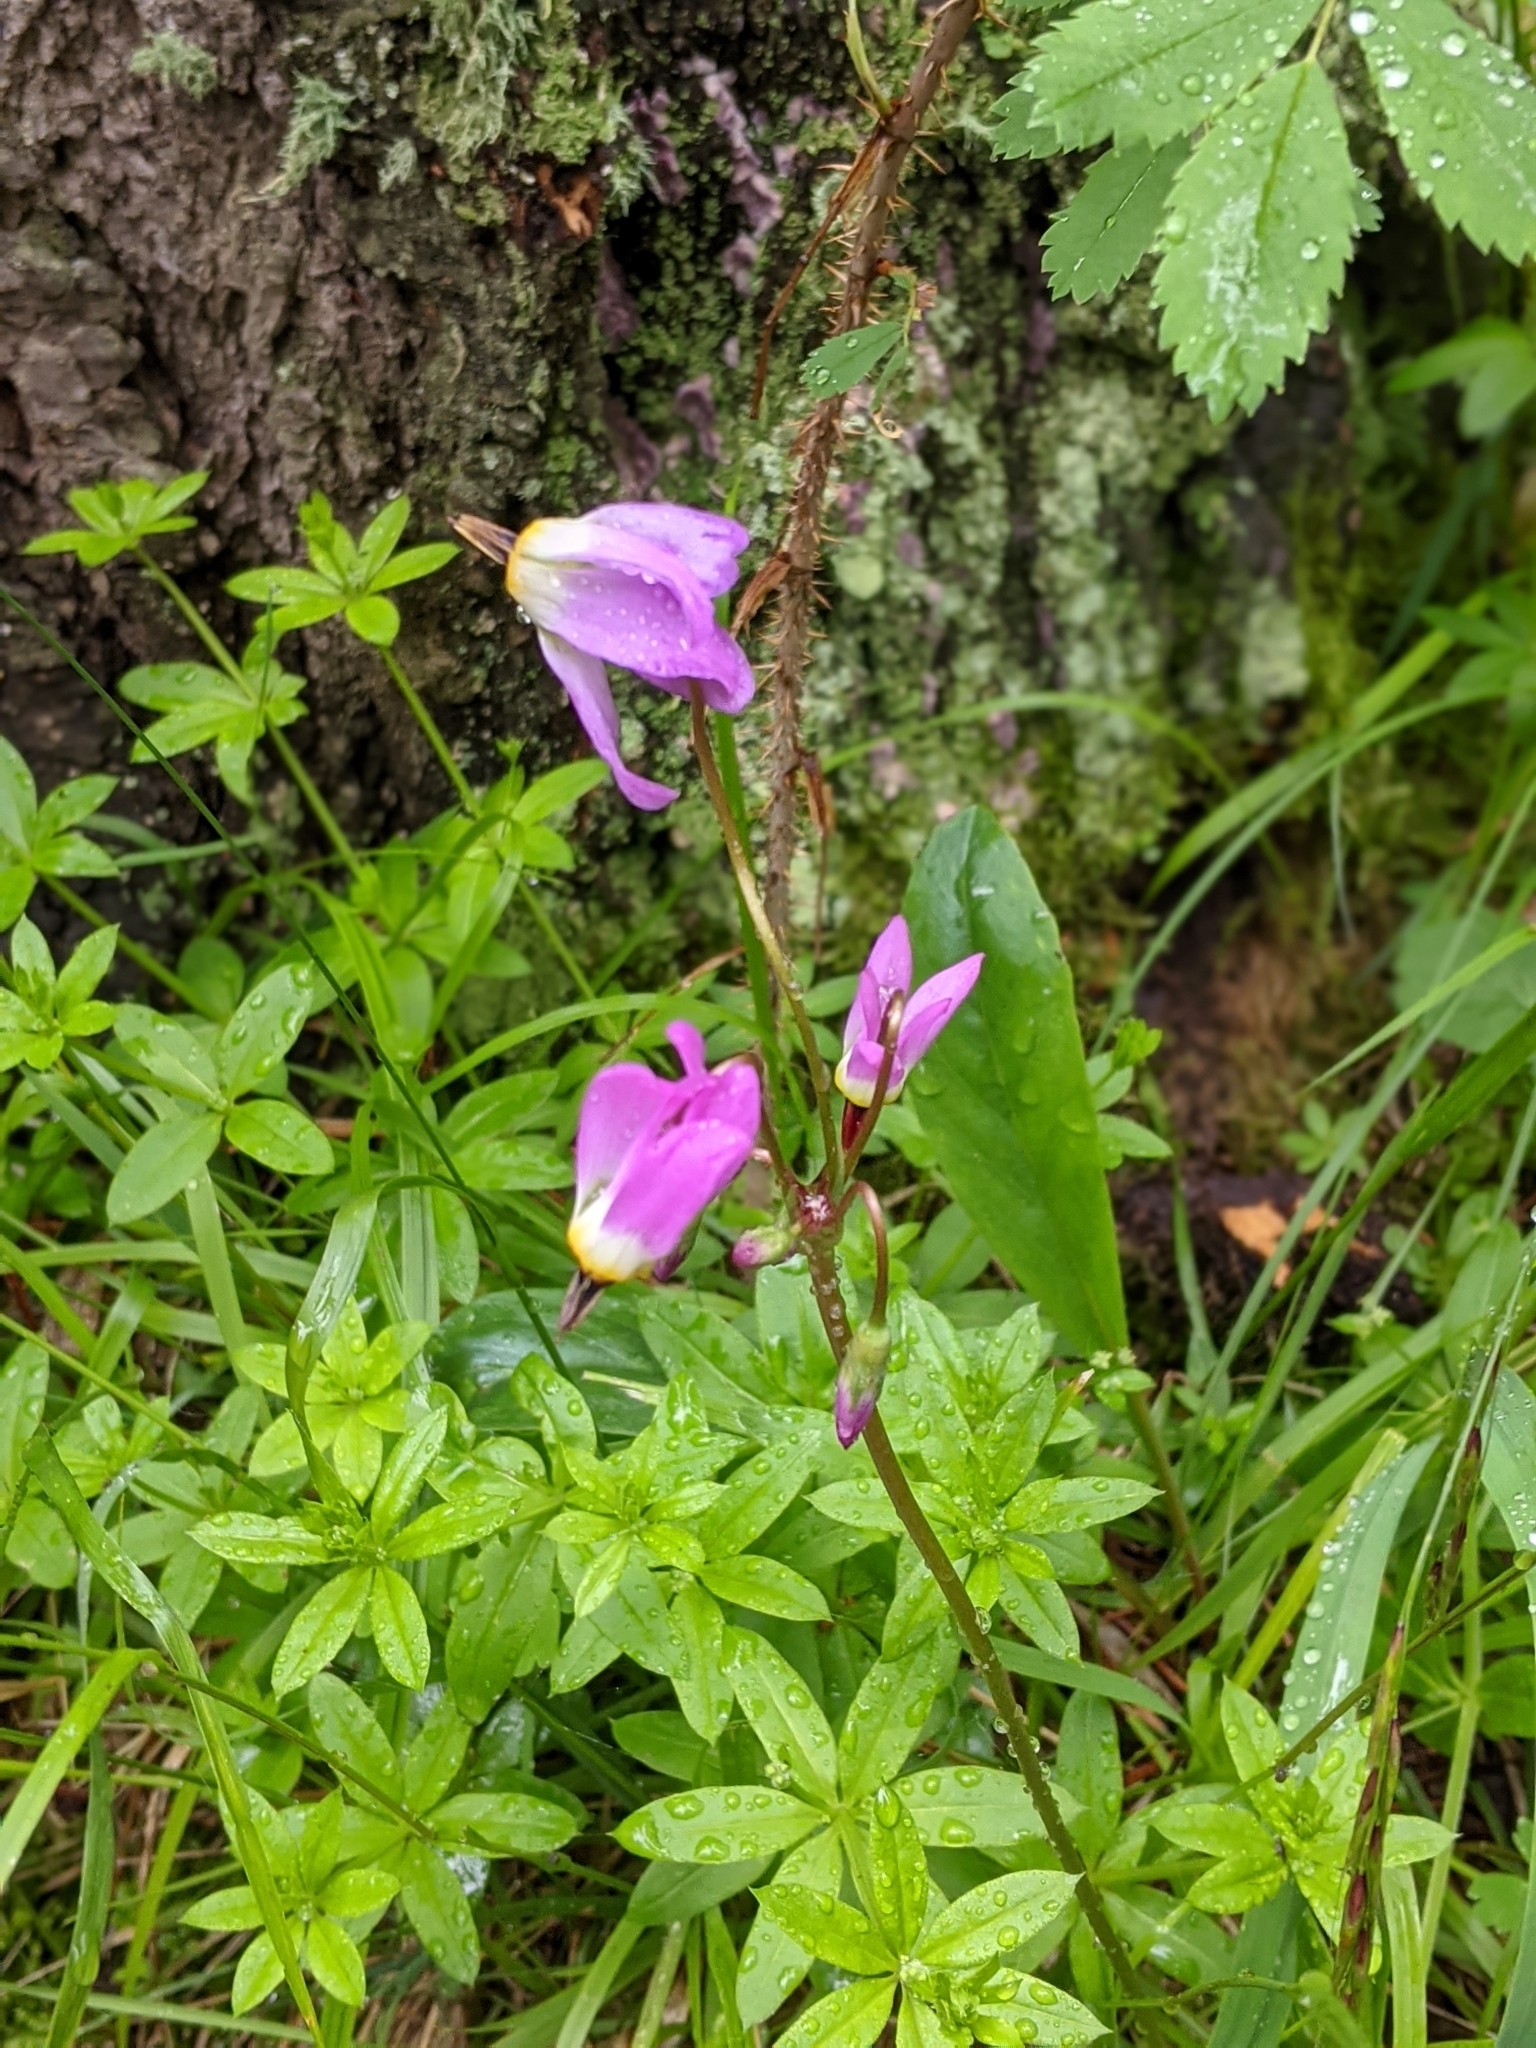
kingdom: Plantae
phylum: Tracheophyta
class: Magnoliopsida
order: Ericales
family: Primulaceae
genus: Dodecatheon
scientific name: Dodecatheon pulchellum
